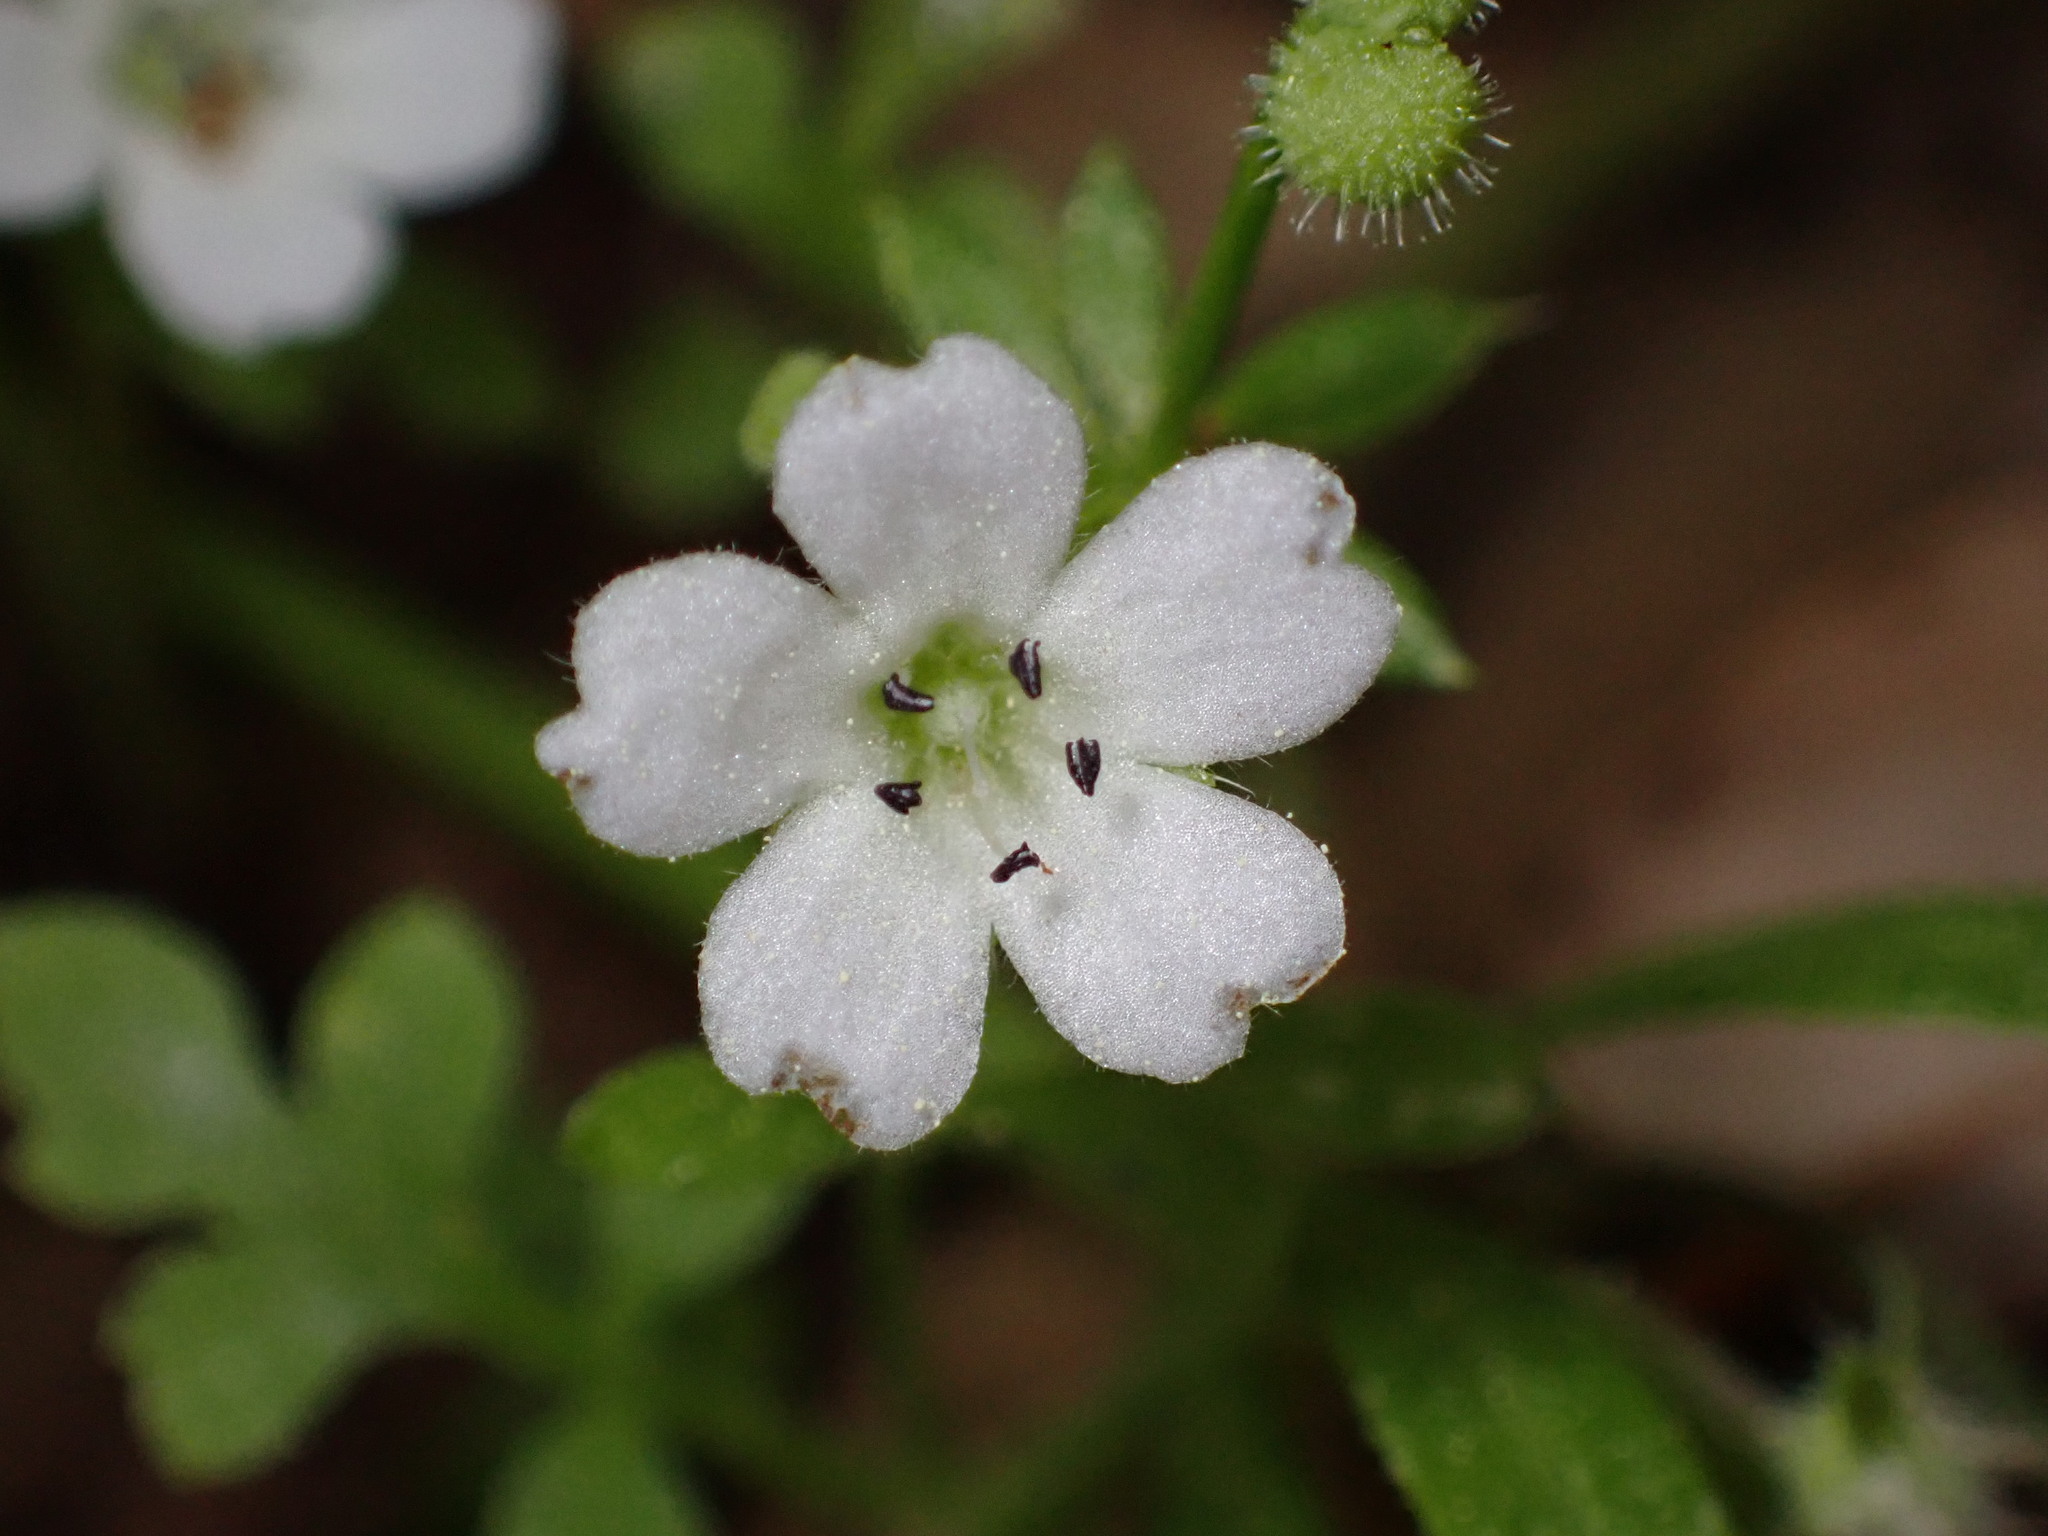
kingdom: Plantae
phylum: Tracheophyta
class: Magnoliopsida
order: Boraginales
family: Hydrophyllaceae
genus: Nemophila
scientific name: Nemophila heterophylla
